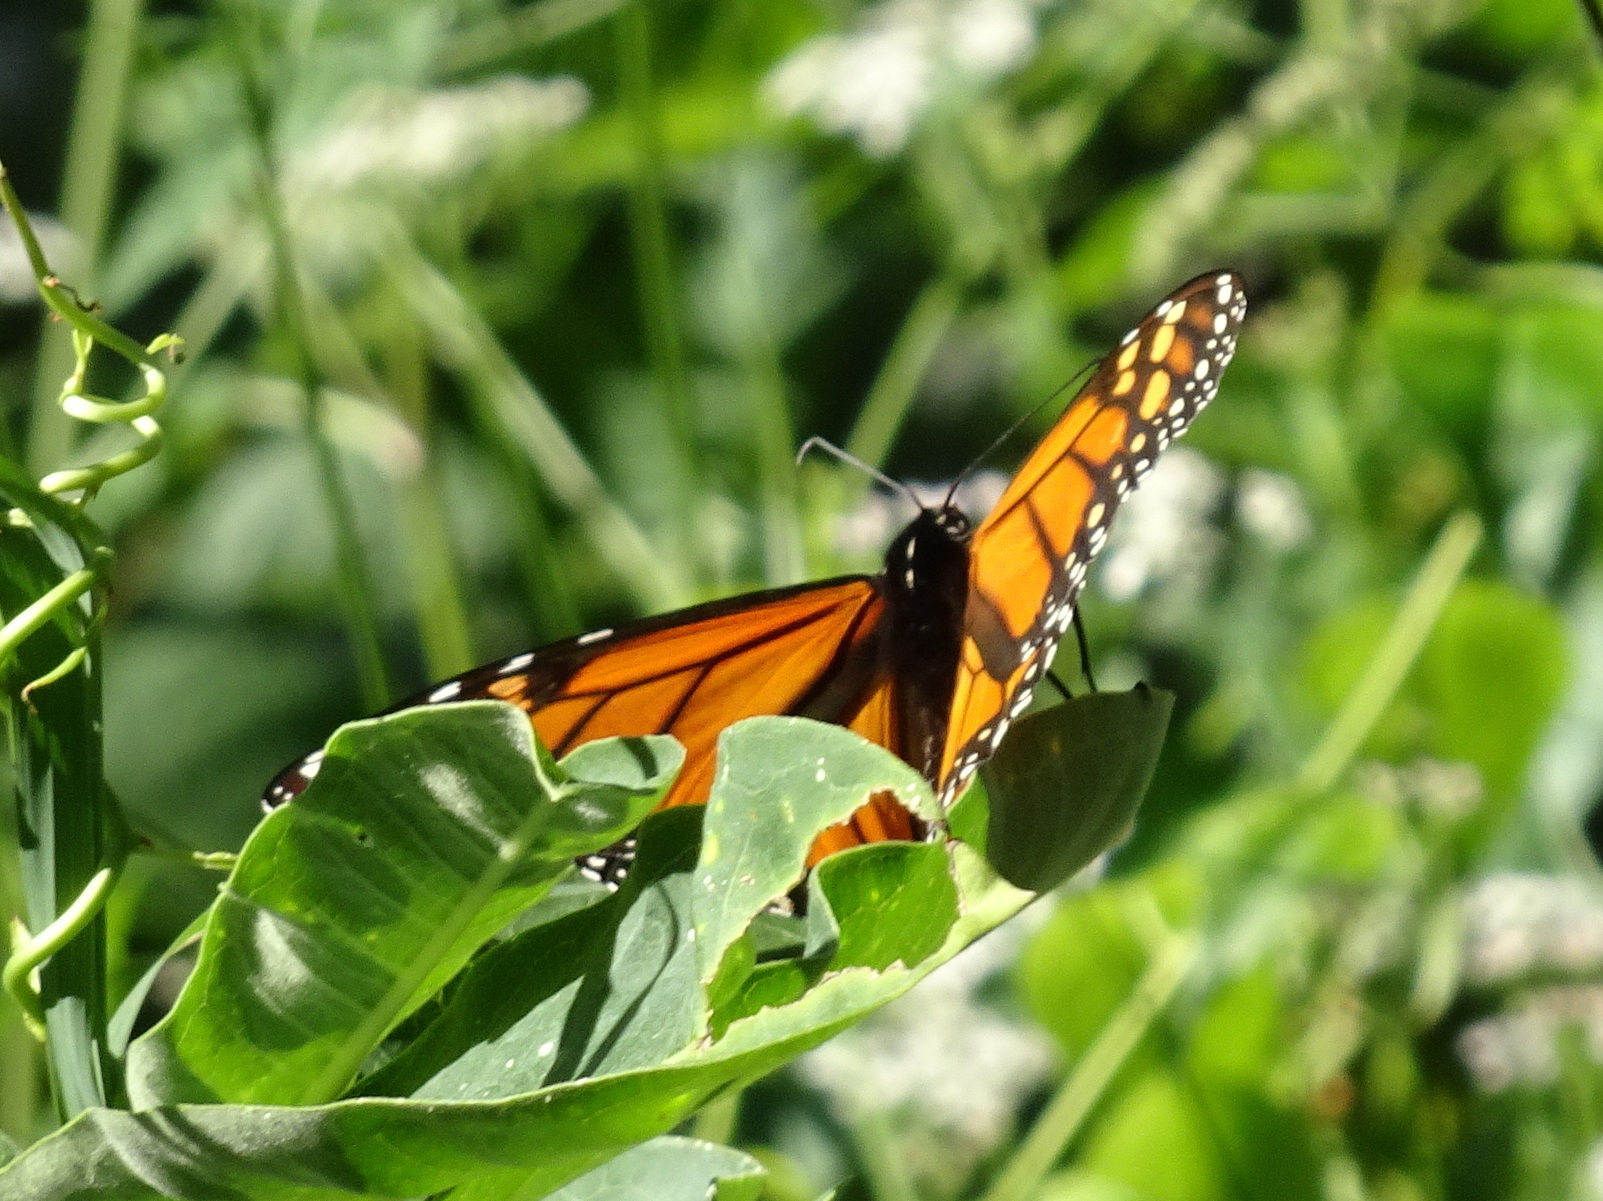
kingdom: Animalia
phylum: Arthropoda
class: Insecta
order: Lepidoptera
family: Nymphalidae
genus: Danaus
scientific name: Danaus plexippus
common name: Monarch
